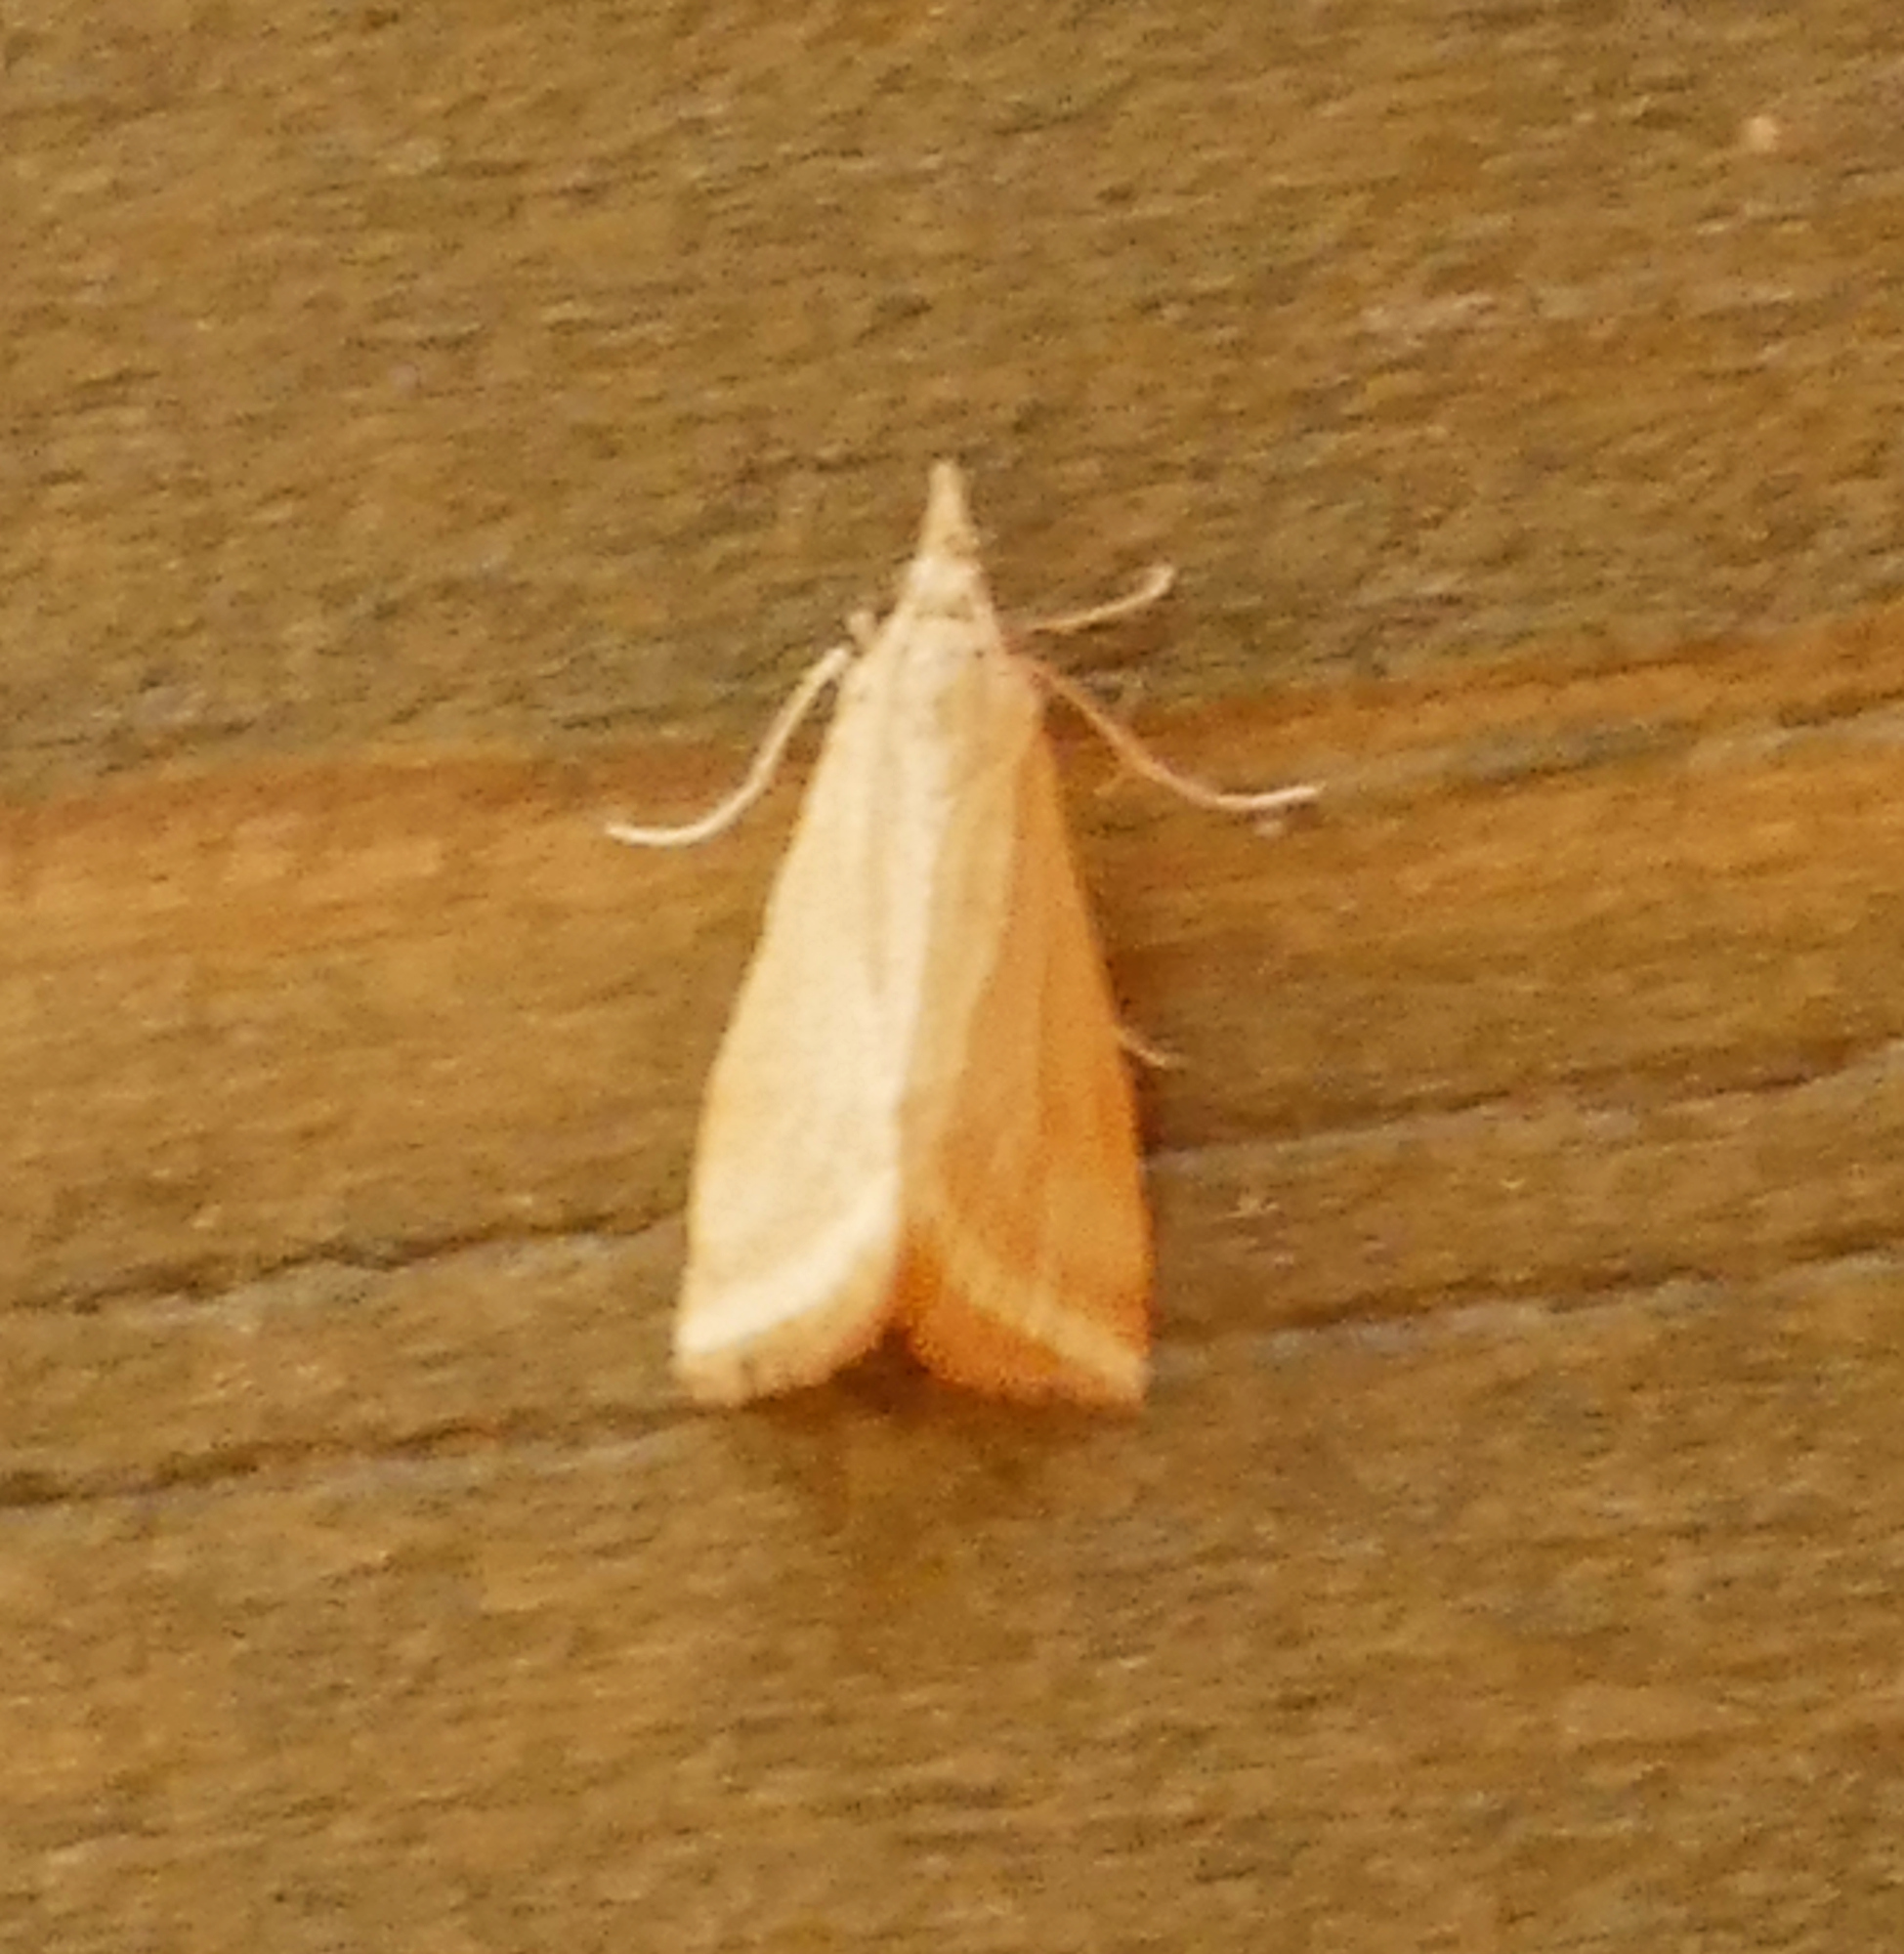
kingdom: Animalia
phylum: Arthropoda
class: Insecta
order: Lepidoptera
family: Crambidae
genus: Microtheoris
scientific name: Microtheoris ophionalis
